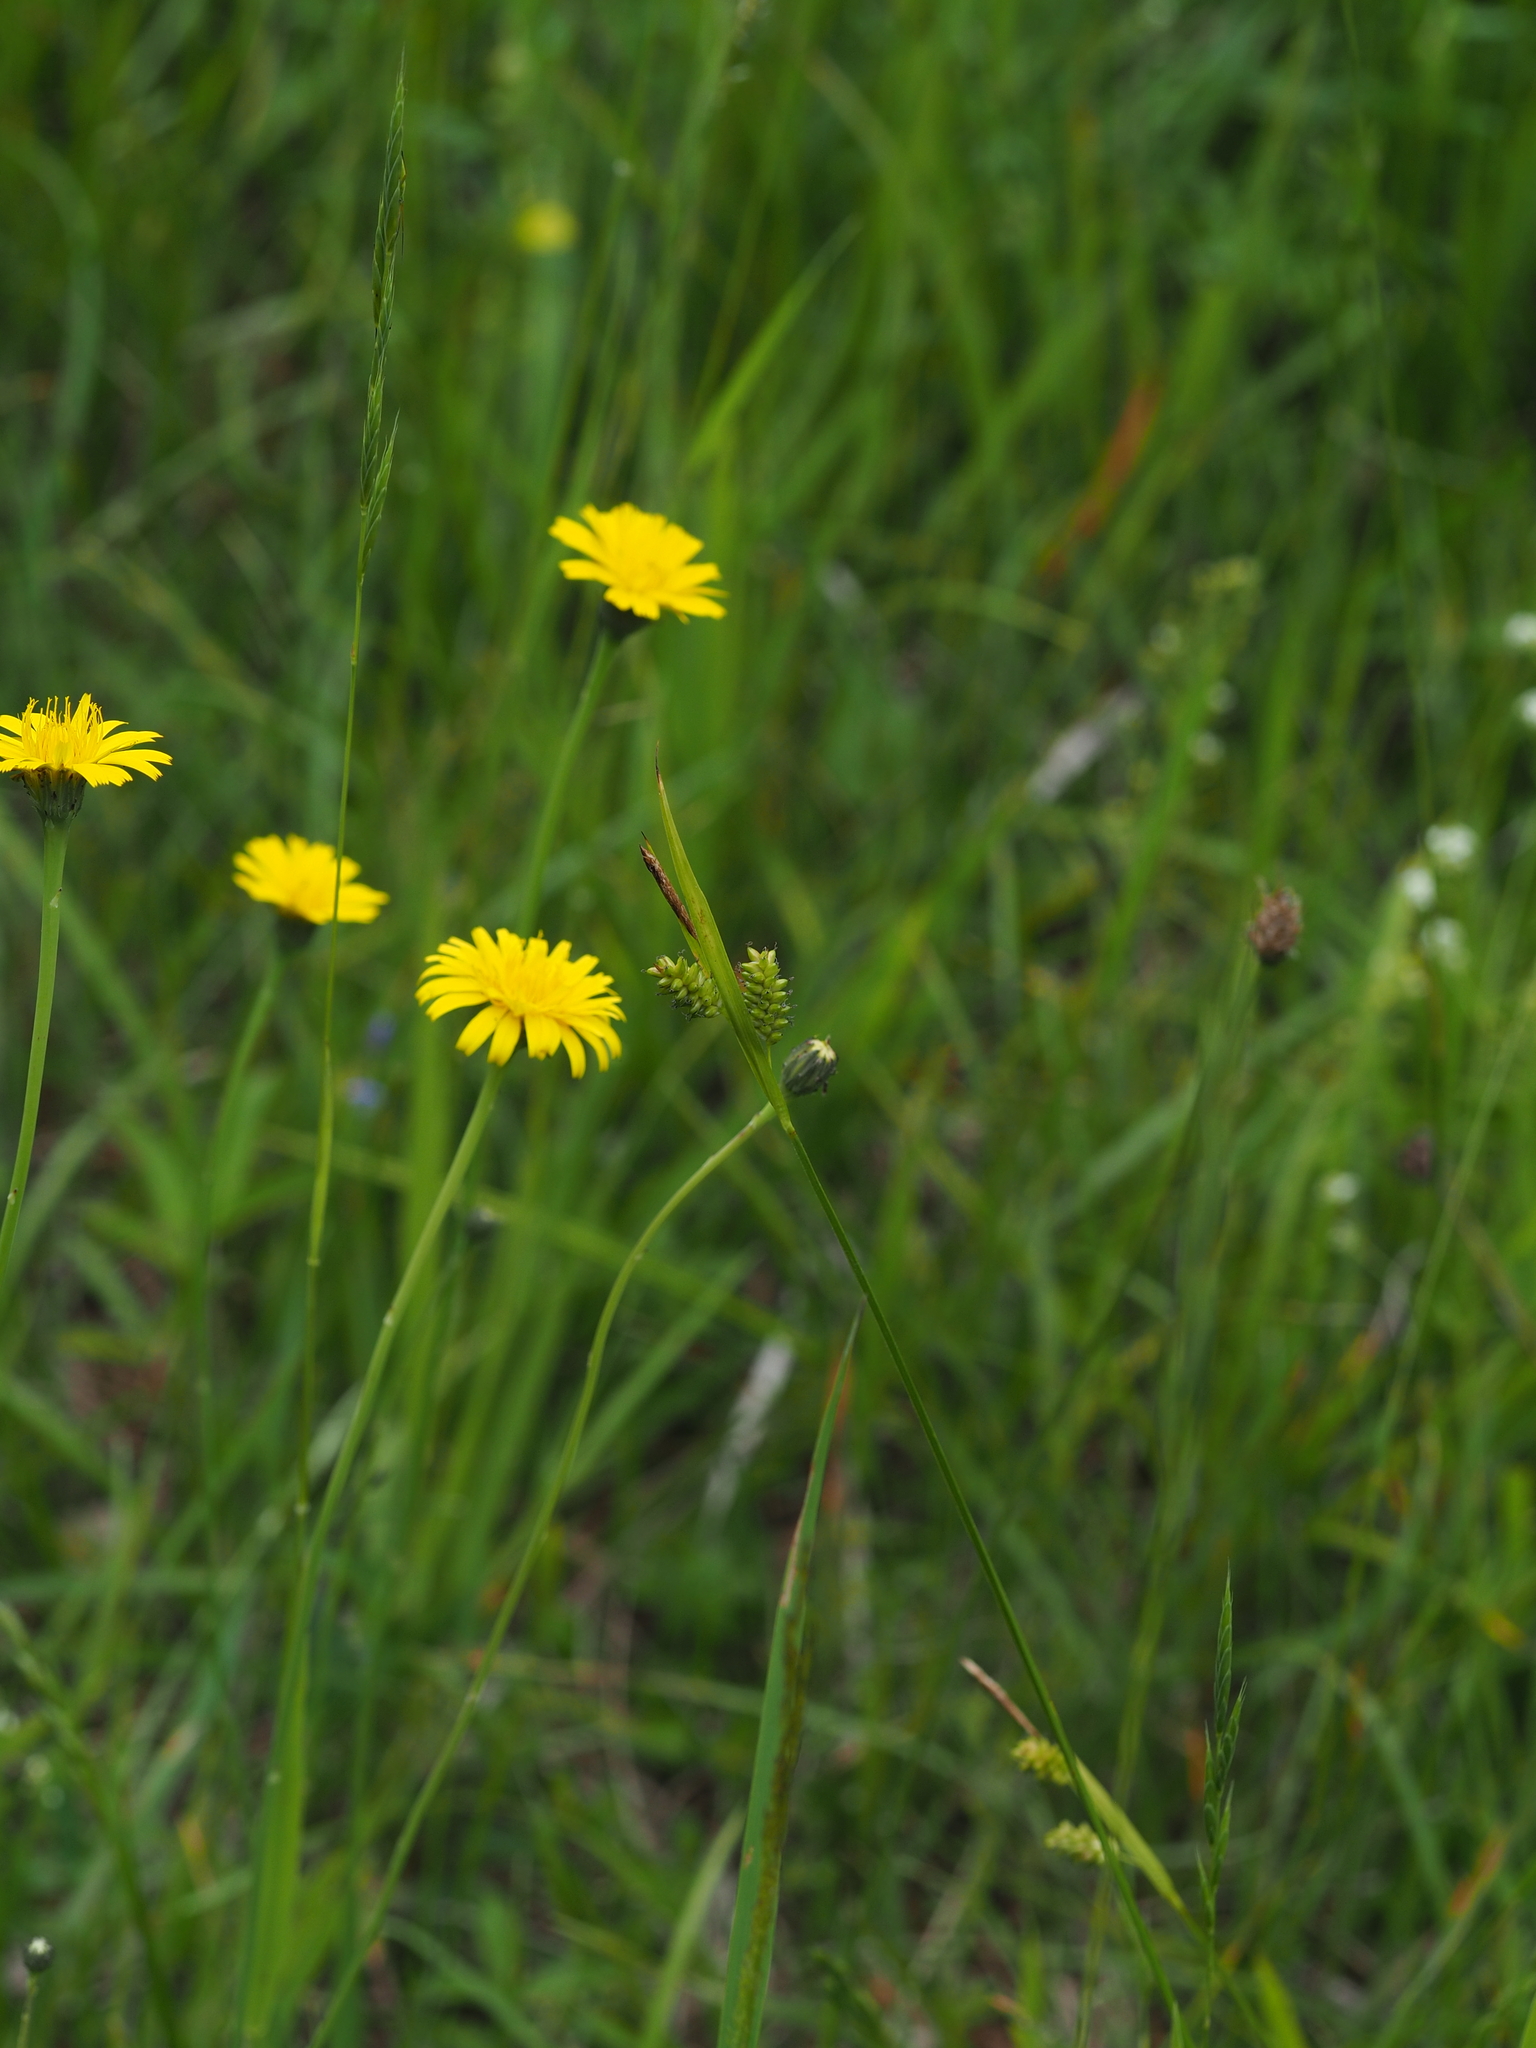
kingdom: Plantae
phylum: Tracheophyta
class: Liliopsida
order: Poales
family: Cyperaceae
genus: Carex
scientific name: Carex pallescens
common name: Pale sedge
